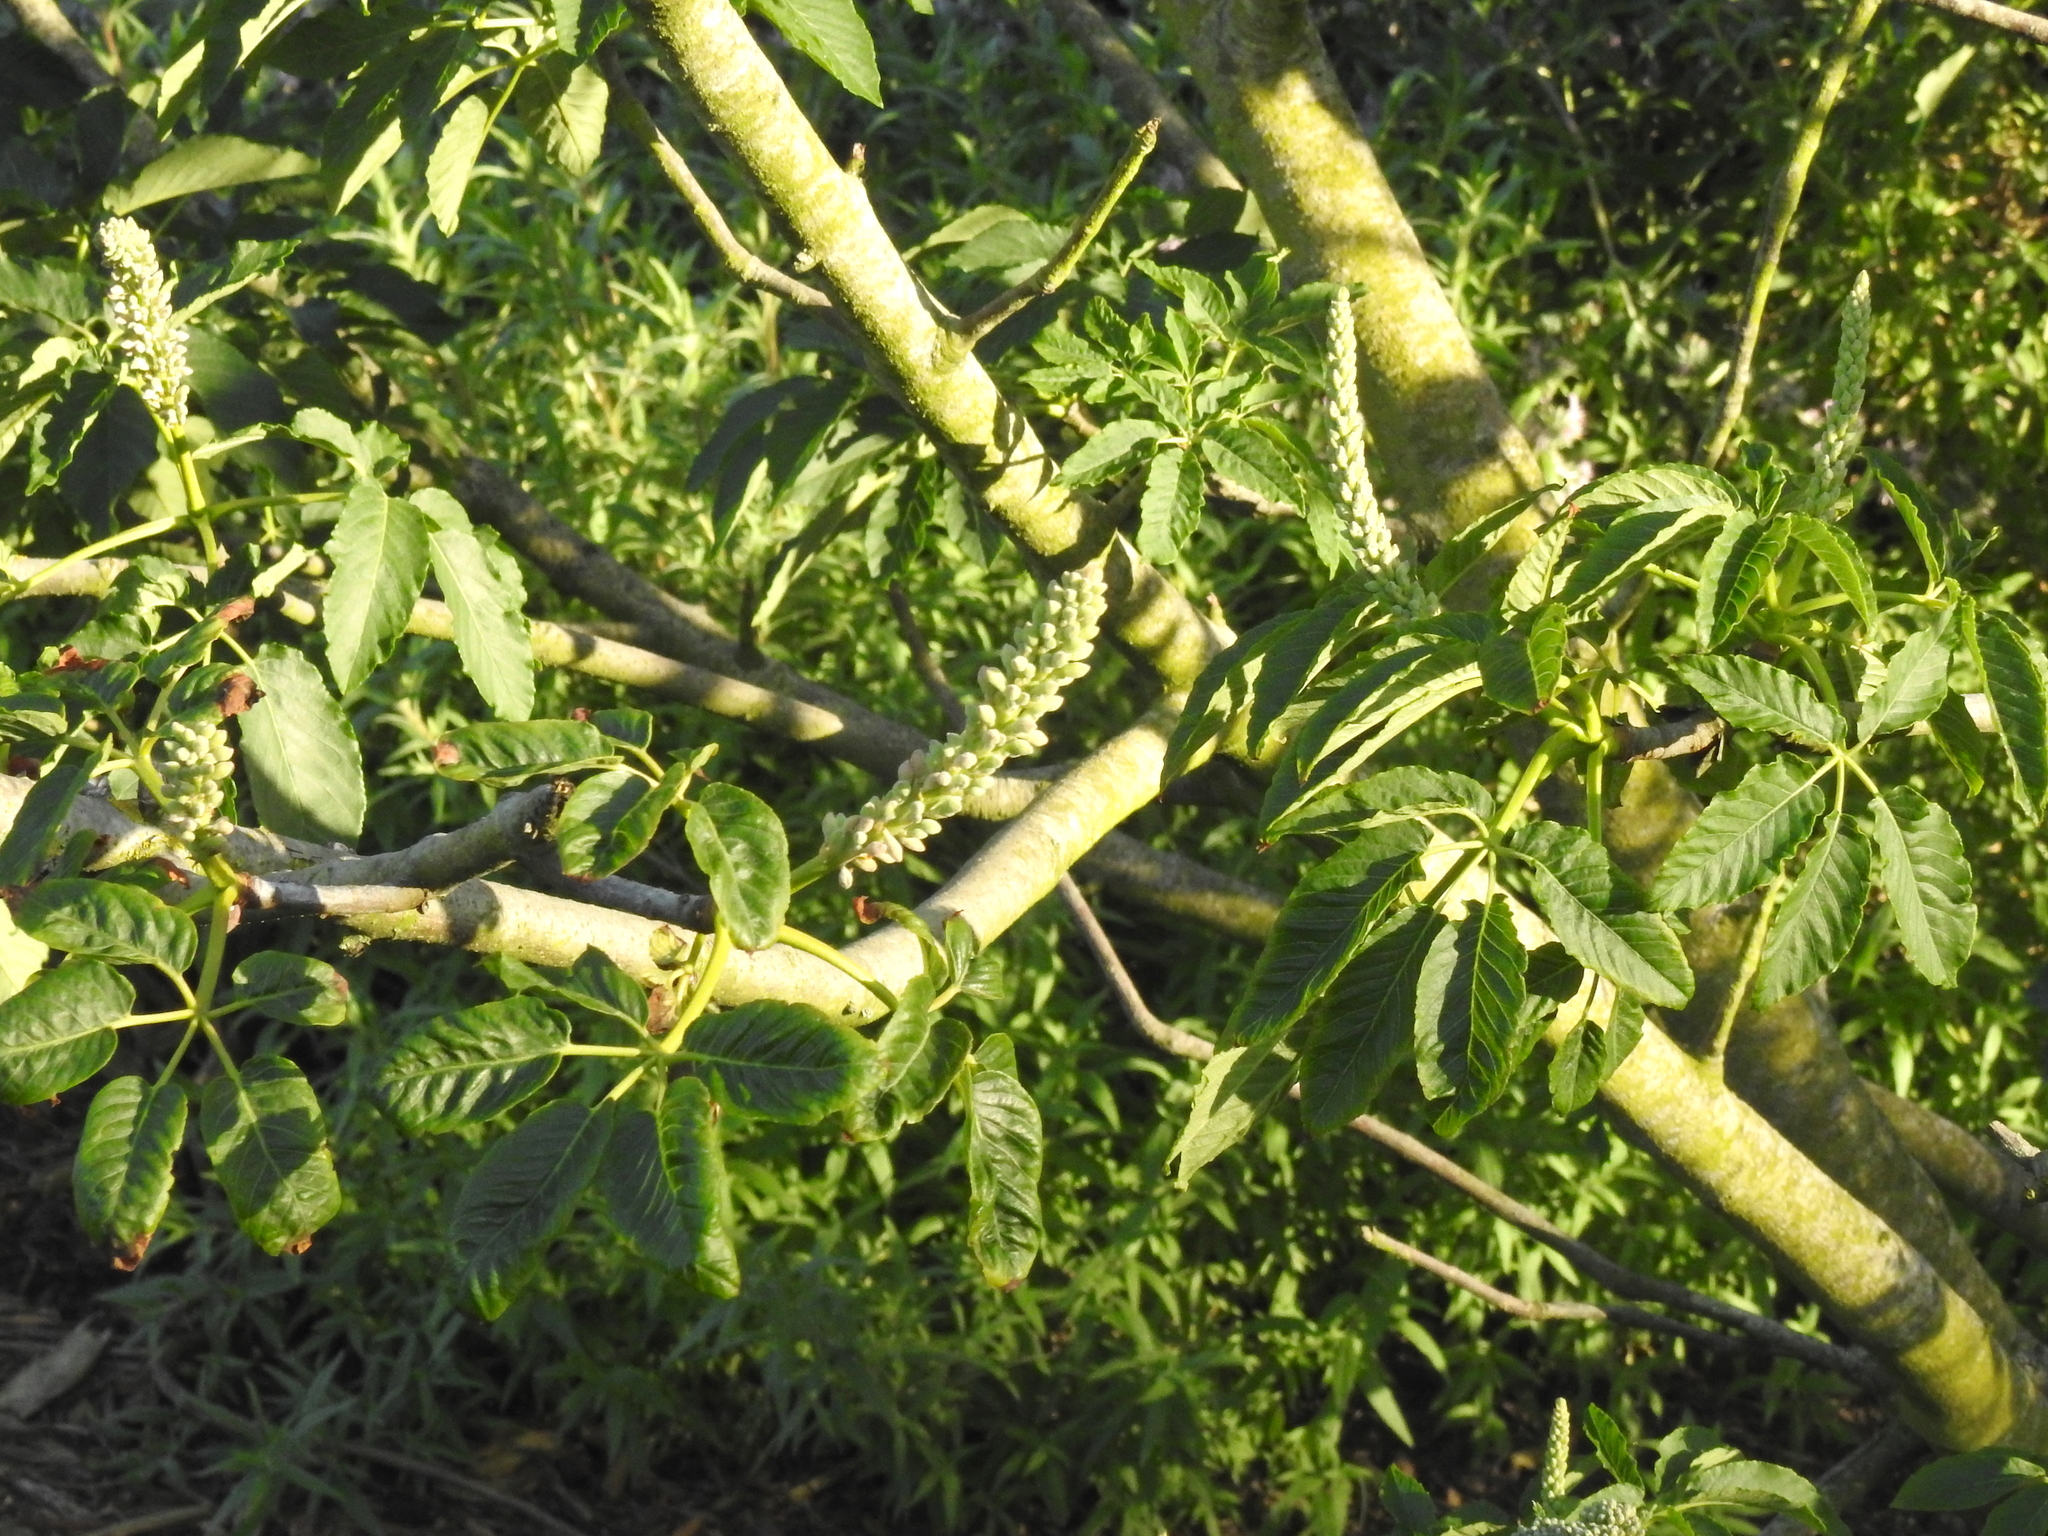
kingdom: Plantae
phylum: Tracheophyta
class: Magnoliopsida
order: Sapindales
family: Sapindaceae
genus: Aesculus
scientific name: Aesculus californica
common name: California buckeye
